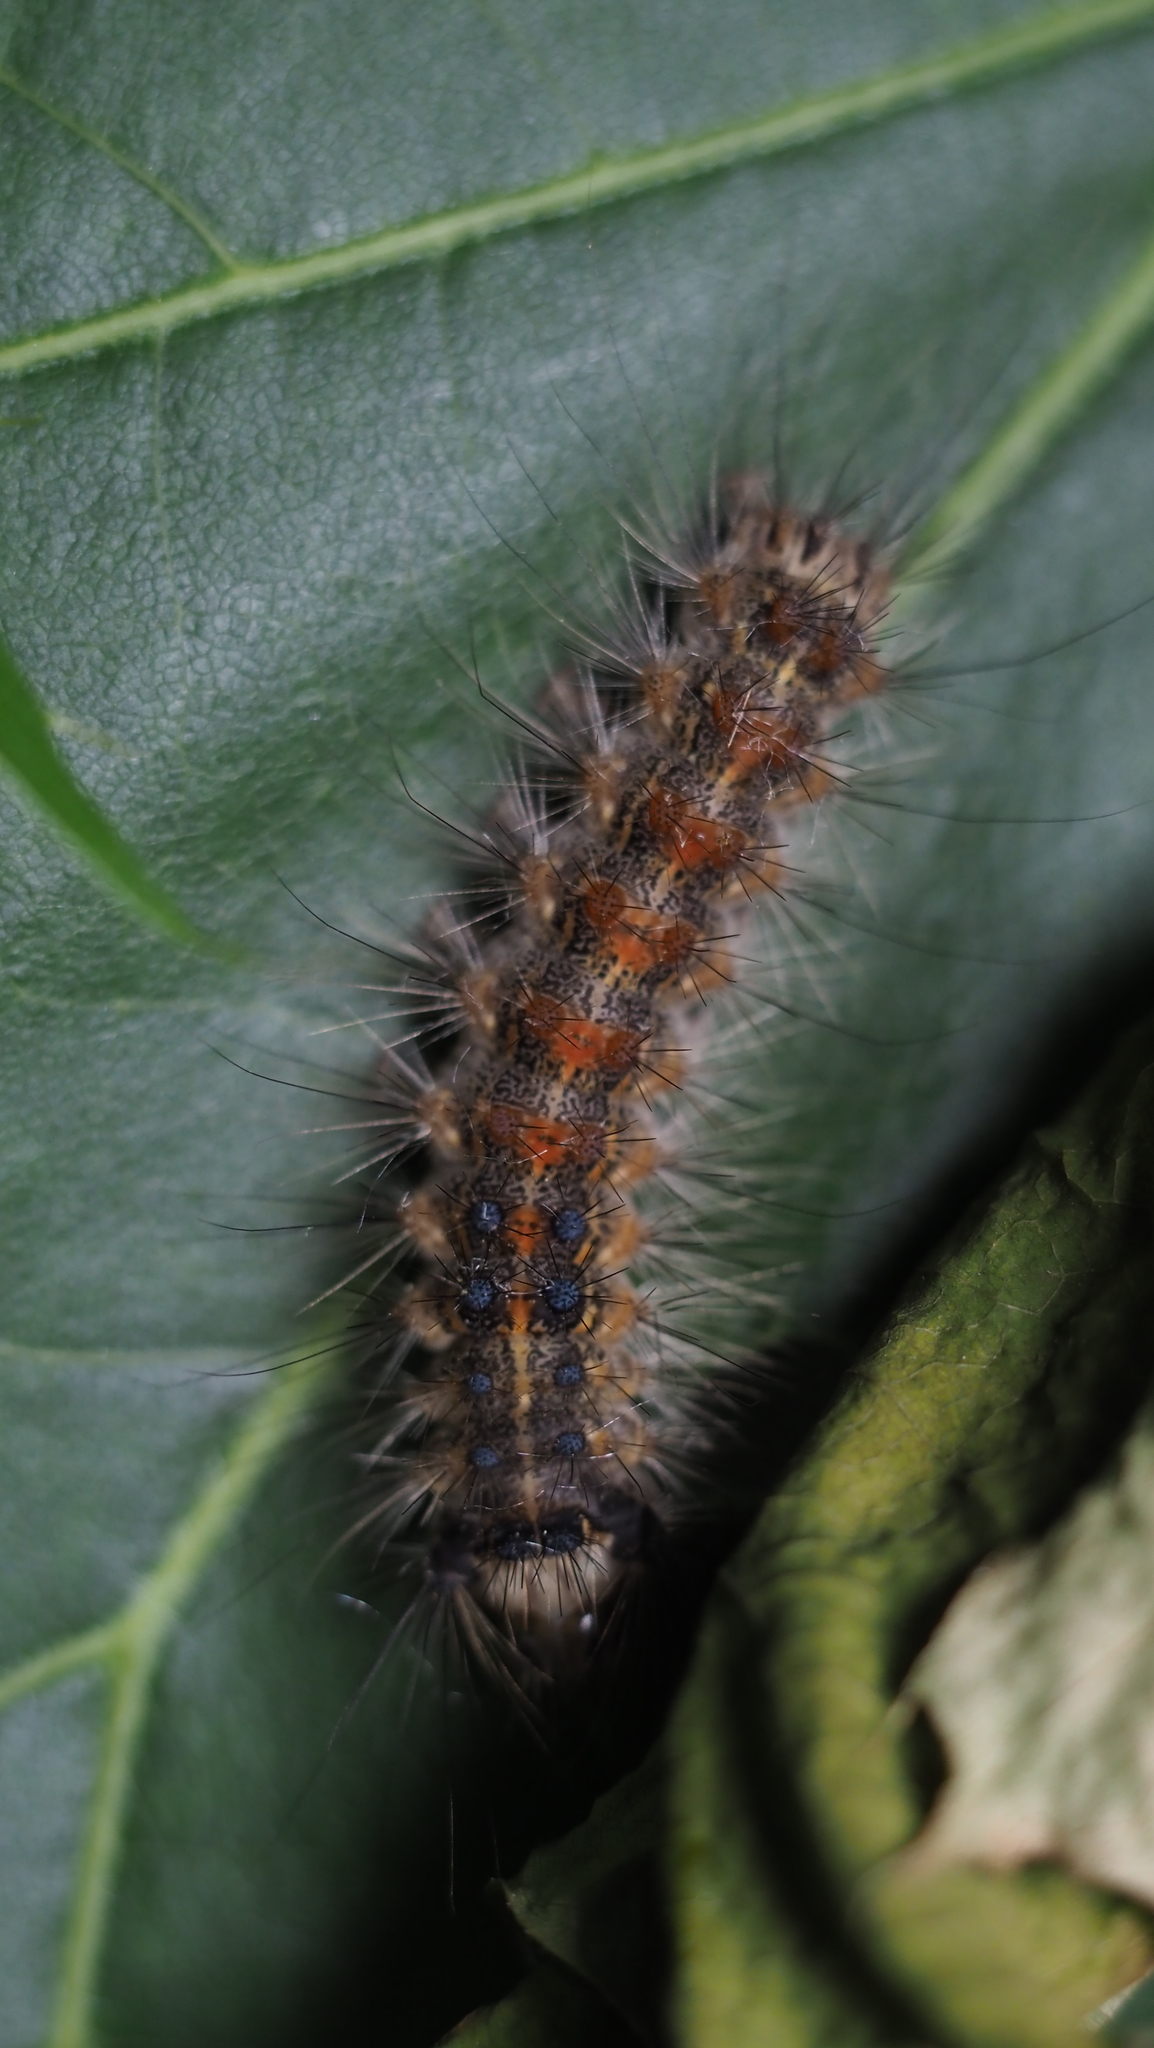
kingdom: Animalia
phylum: Arthropoda
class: Insecta
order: Lepidoptera
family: Erebidae
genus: Lymantria
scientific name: Lymantria dispar
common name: Gypsy moth
